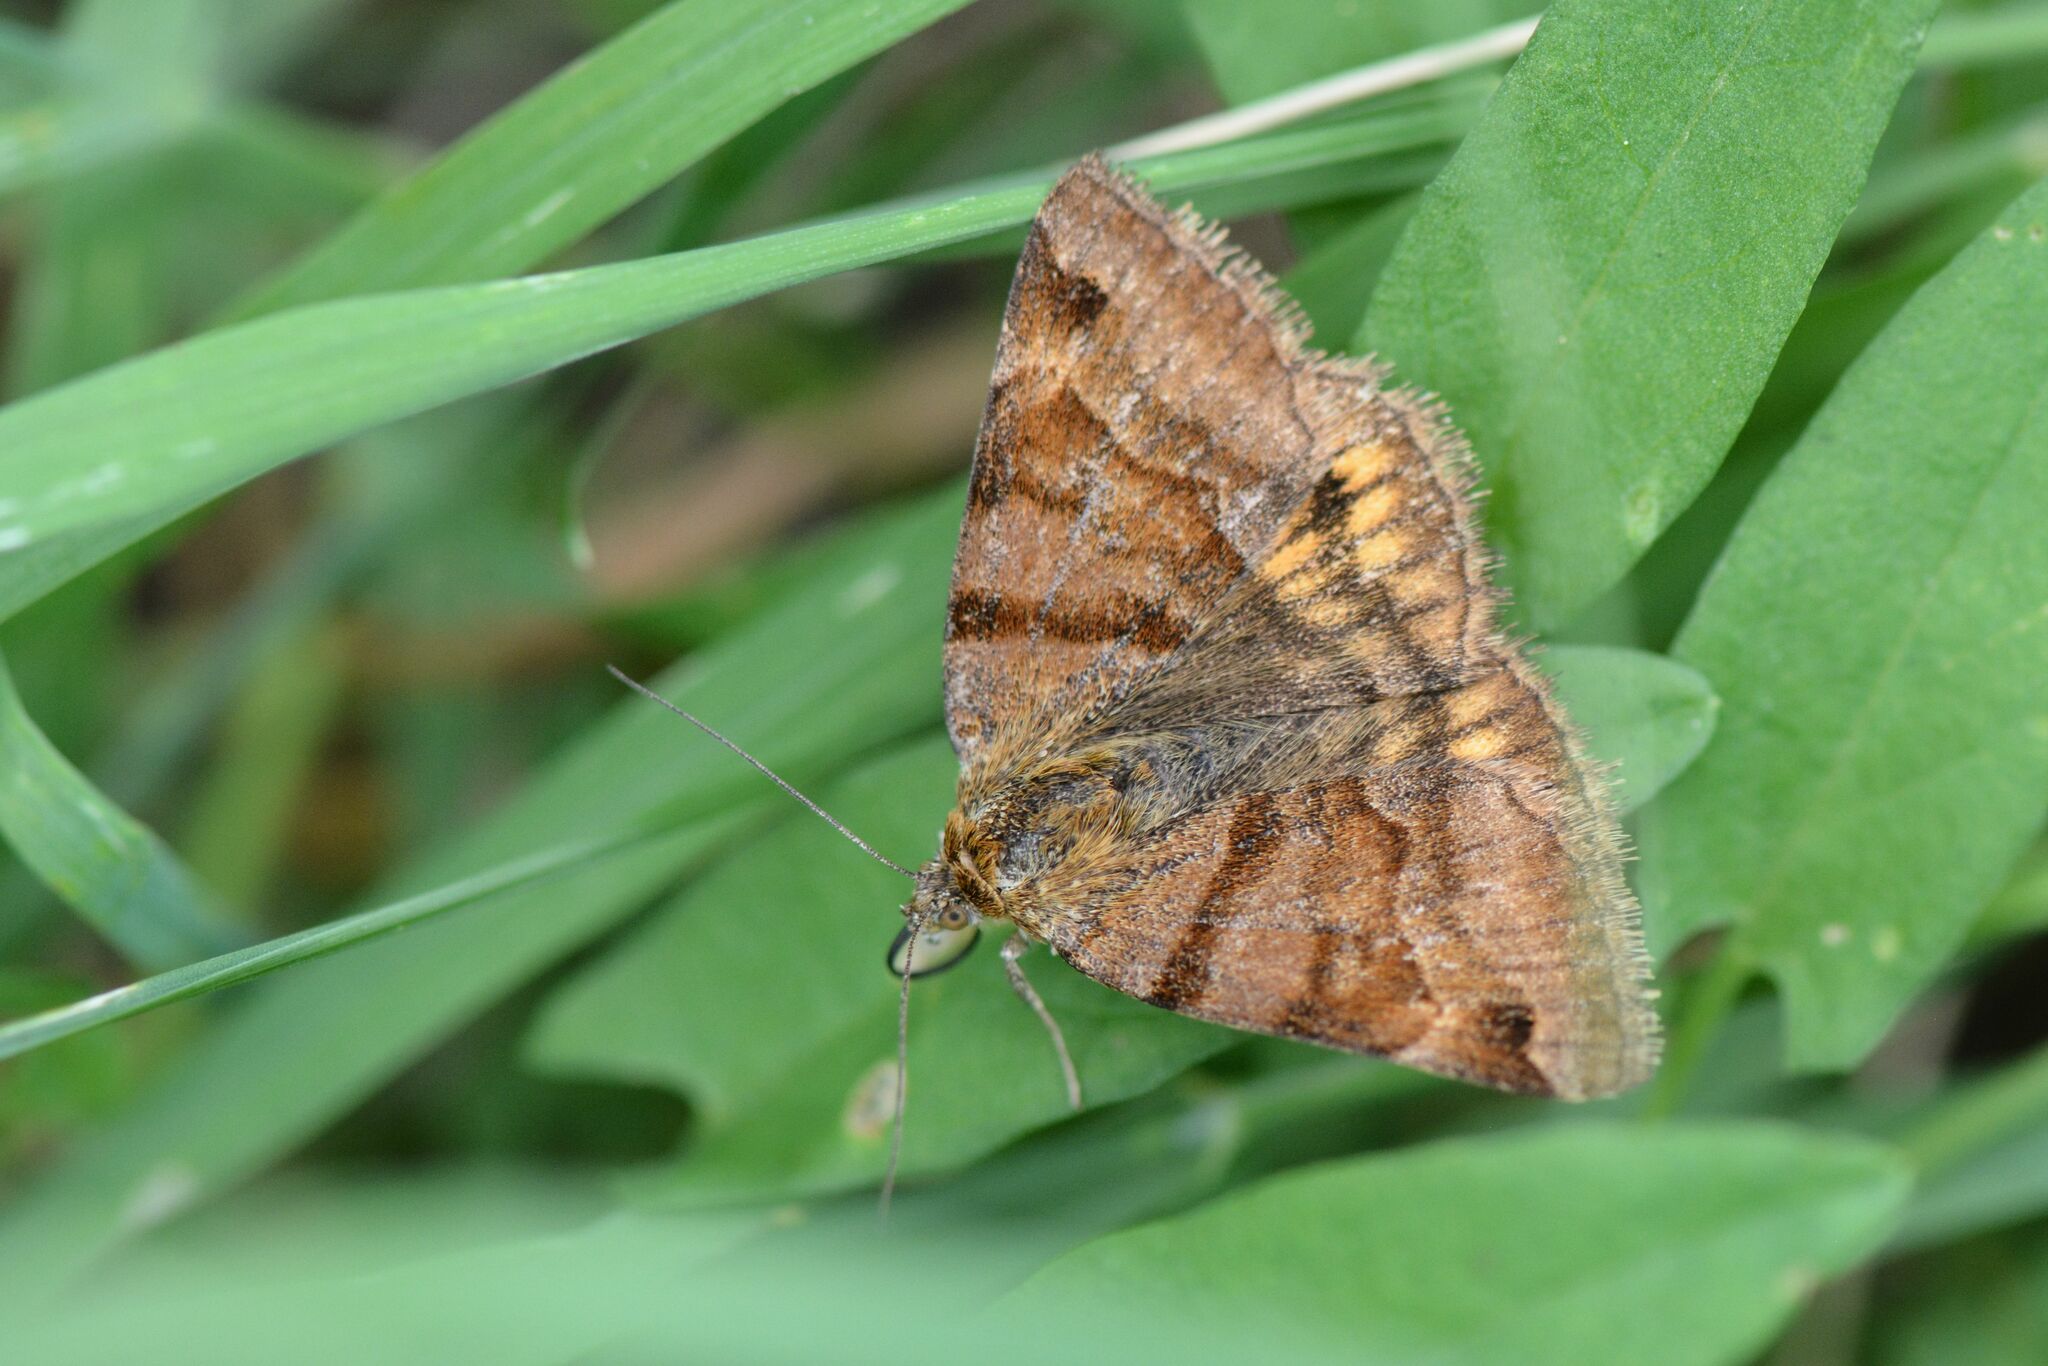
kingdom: Animalia
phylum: Arthropoda
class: Insecta
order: Lepidoptera
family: Erebidae
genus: Euclidia
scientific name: Euclidia glyphica
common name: Burnet companion
